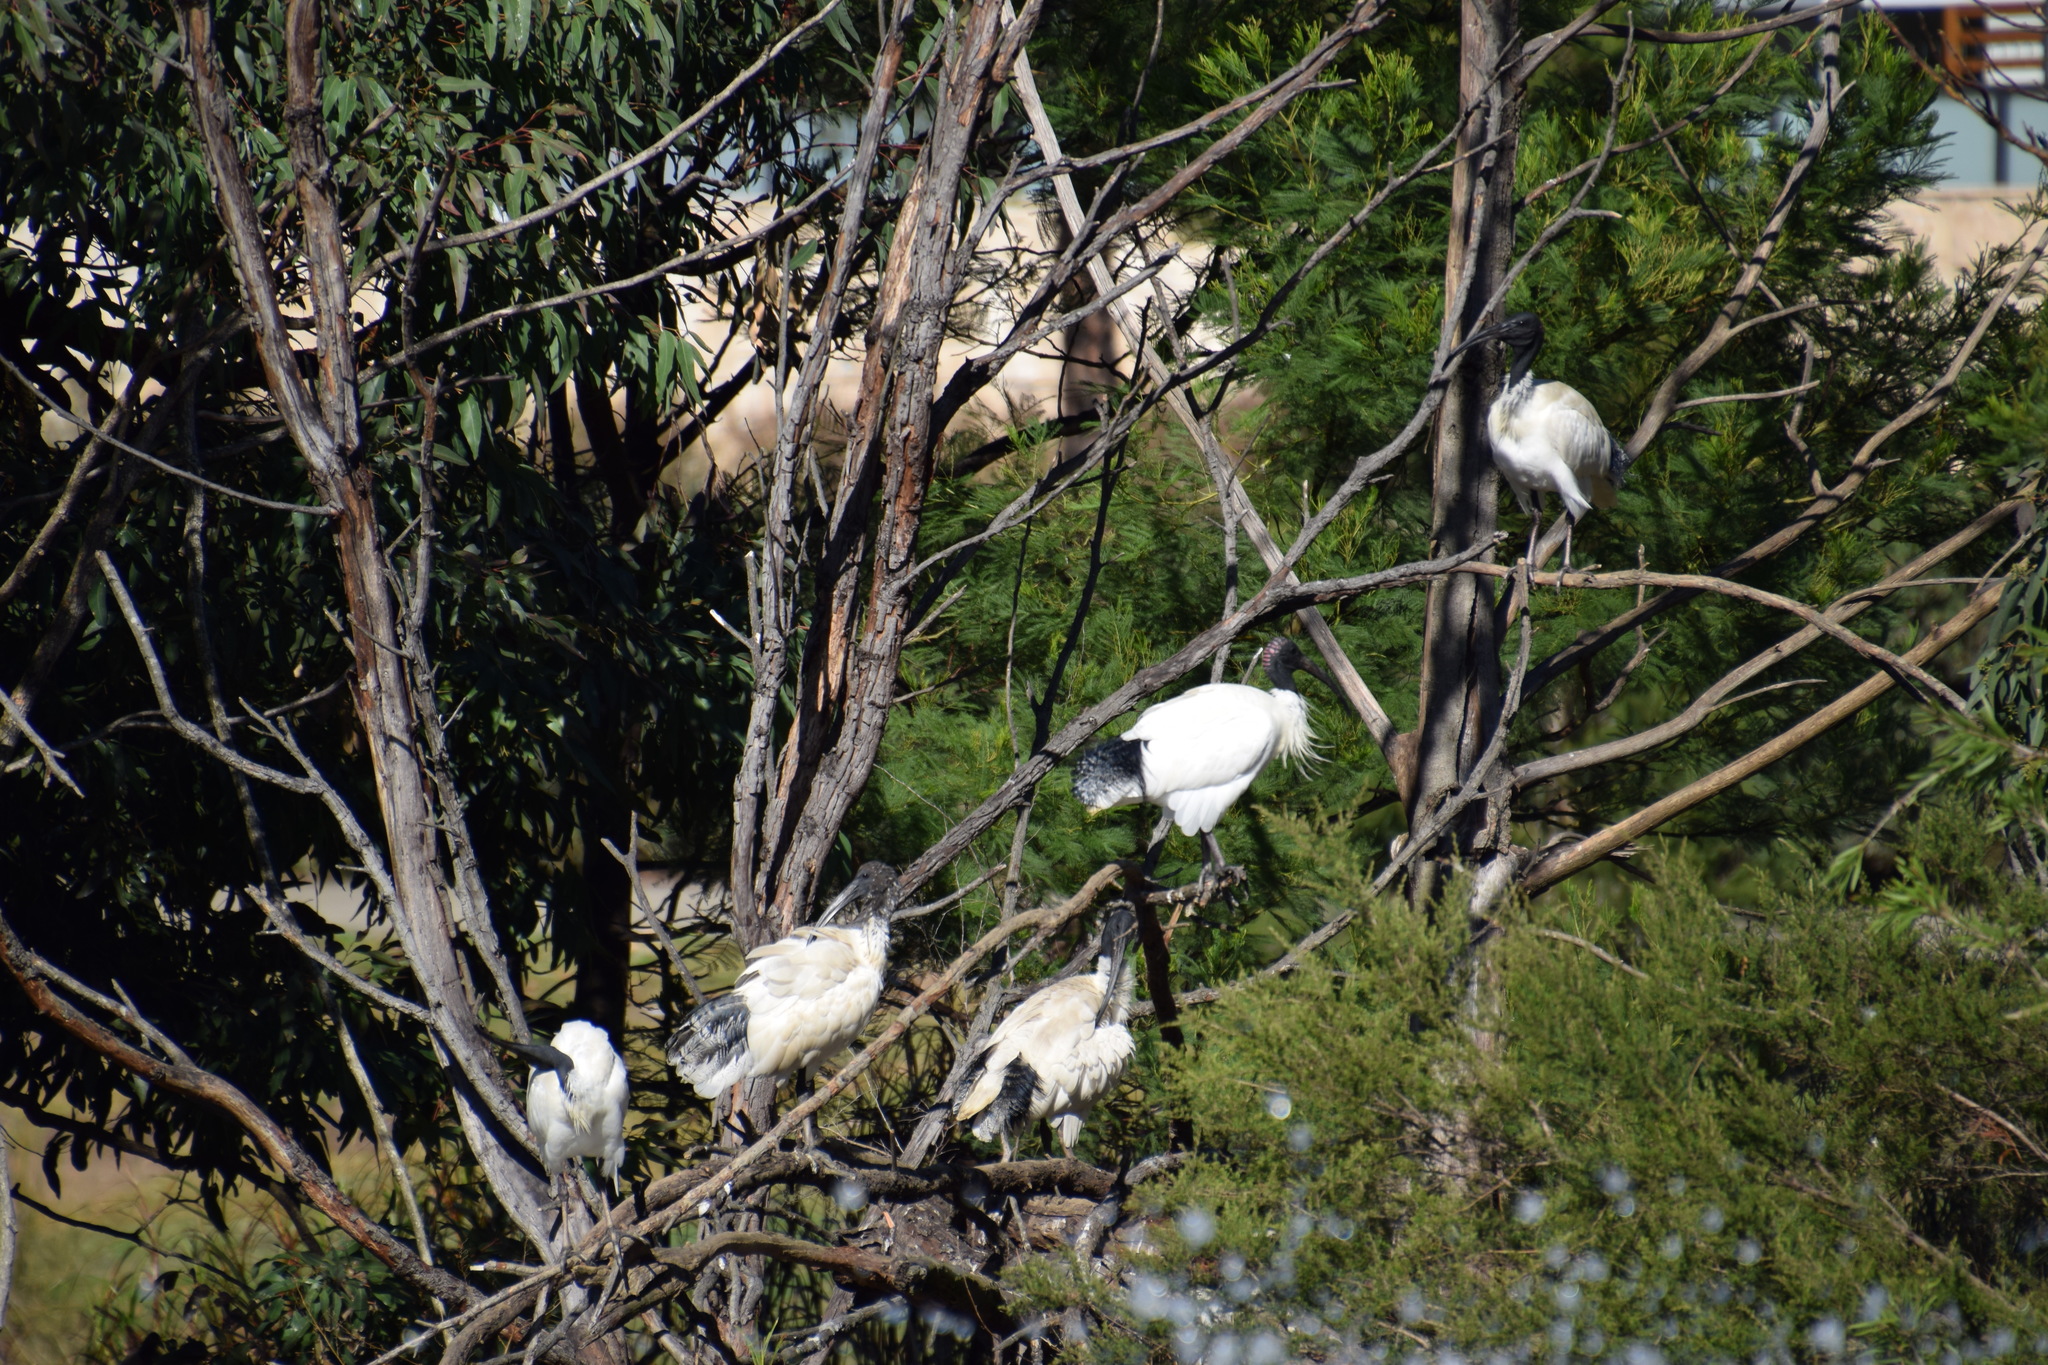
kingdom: Animalia
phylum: Chordata
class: Aves
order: Pelecaniformes
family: Threskiornithidae
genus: Threskiornis
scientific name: Threskiornis molucca
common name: Australian white ibis
